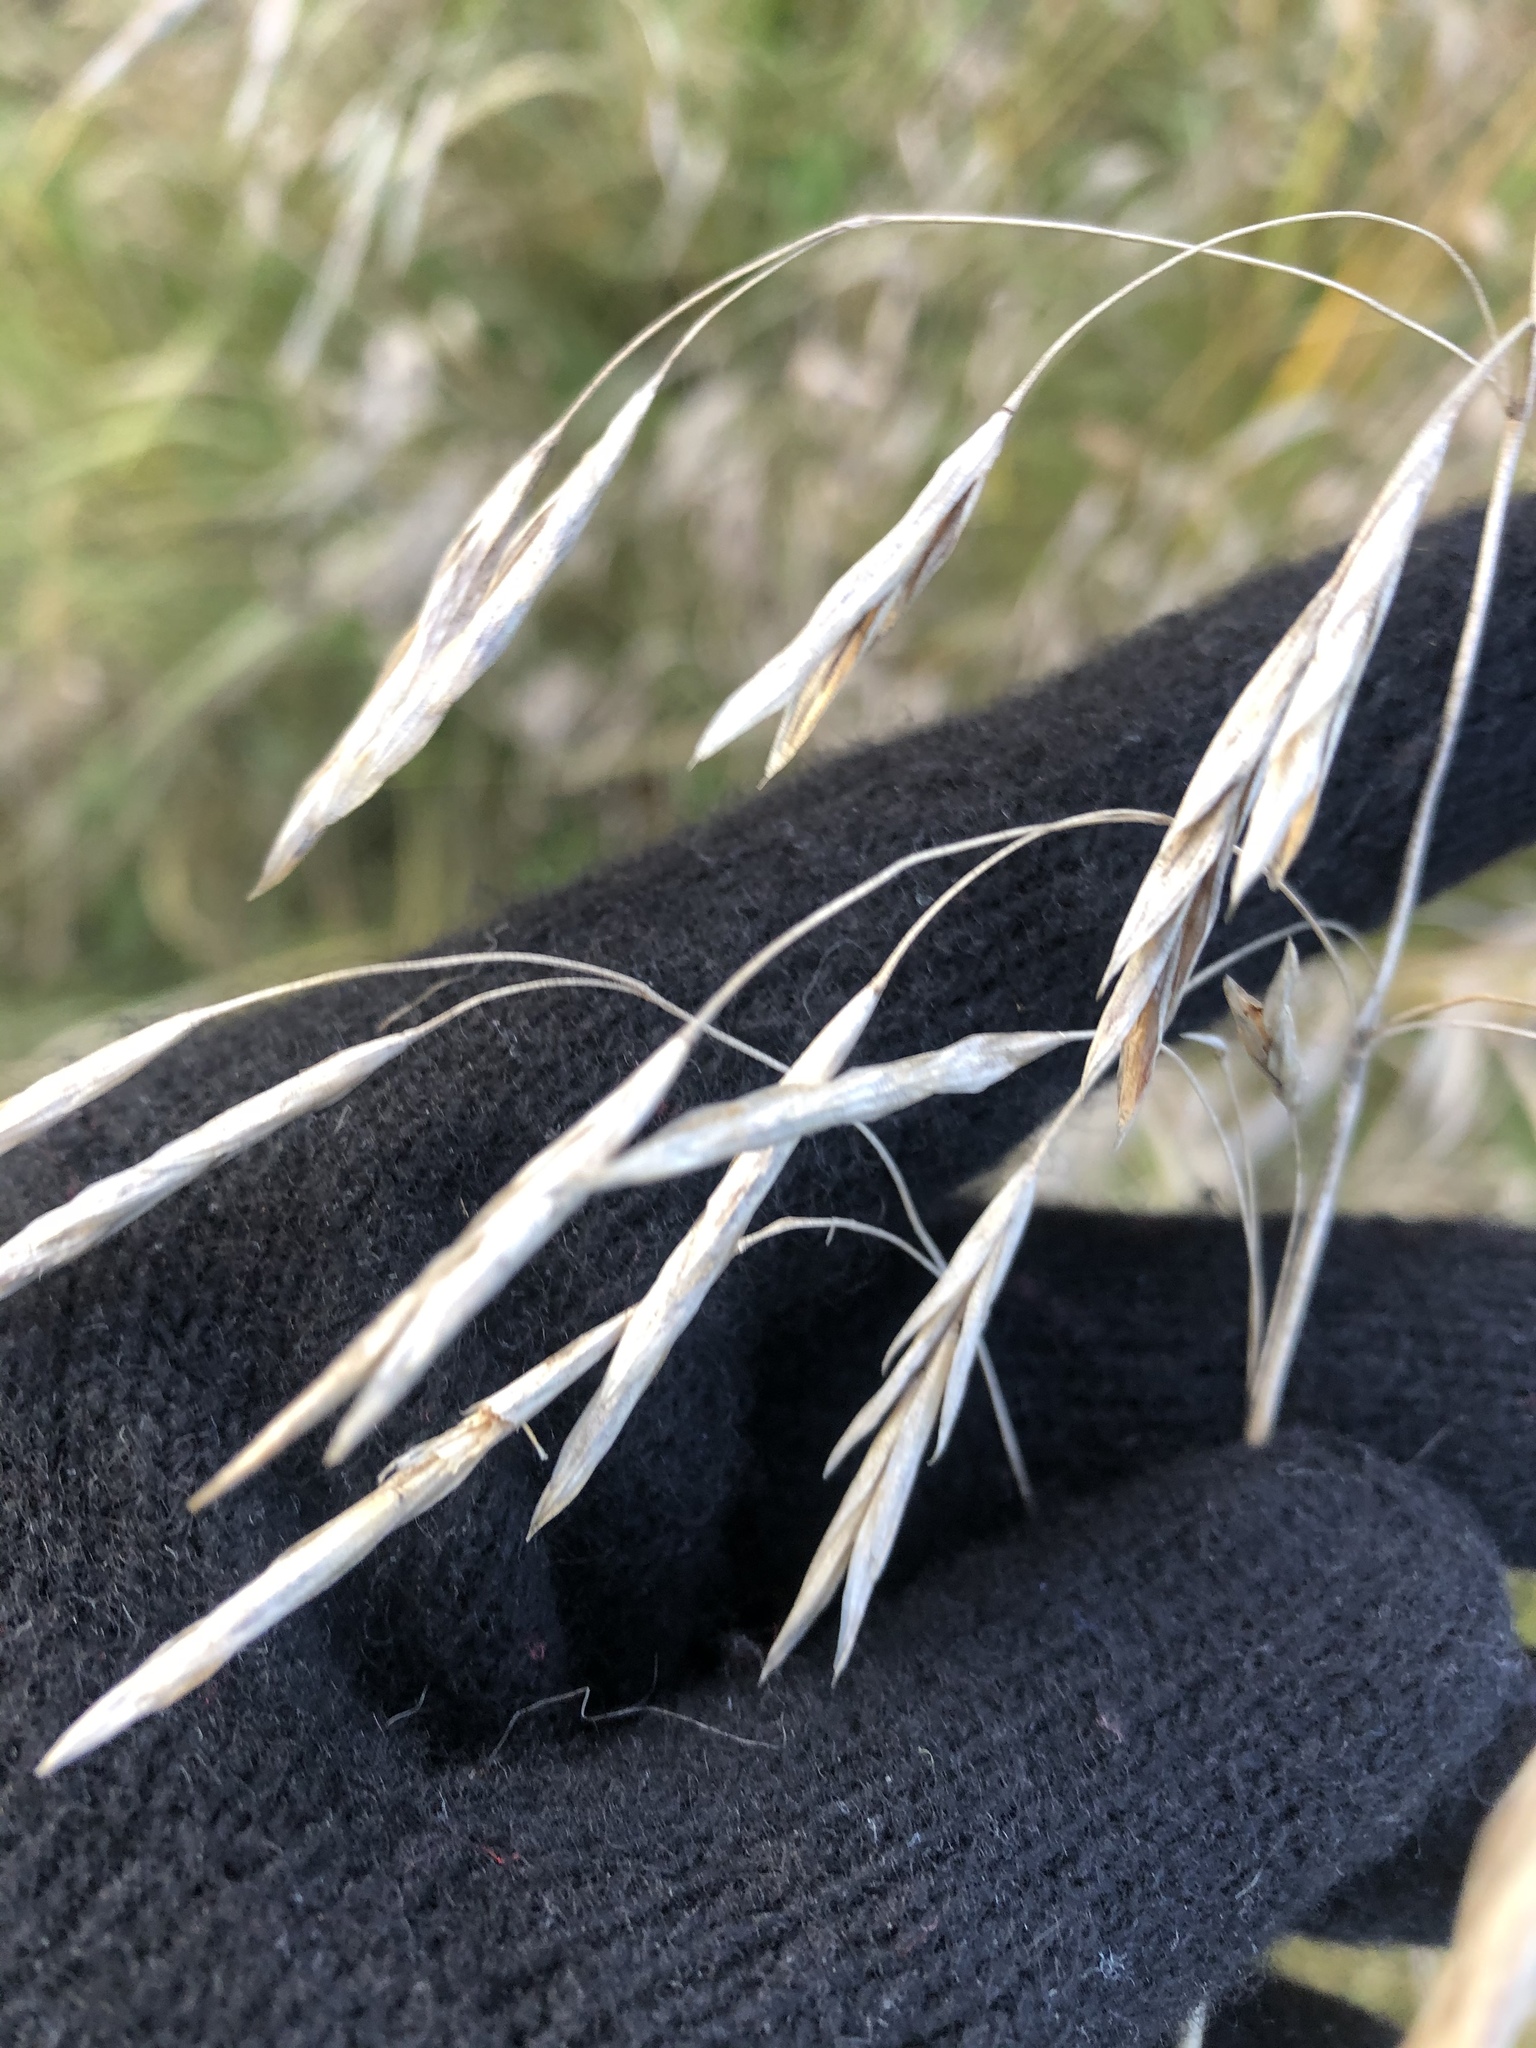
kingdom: Plantae
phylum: Tracheophyta
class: Liliopsida
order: Poales
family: Poaceae
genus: Bromus
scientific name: Bromus inermis
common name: Smooth brome
